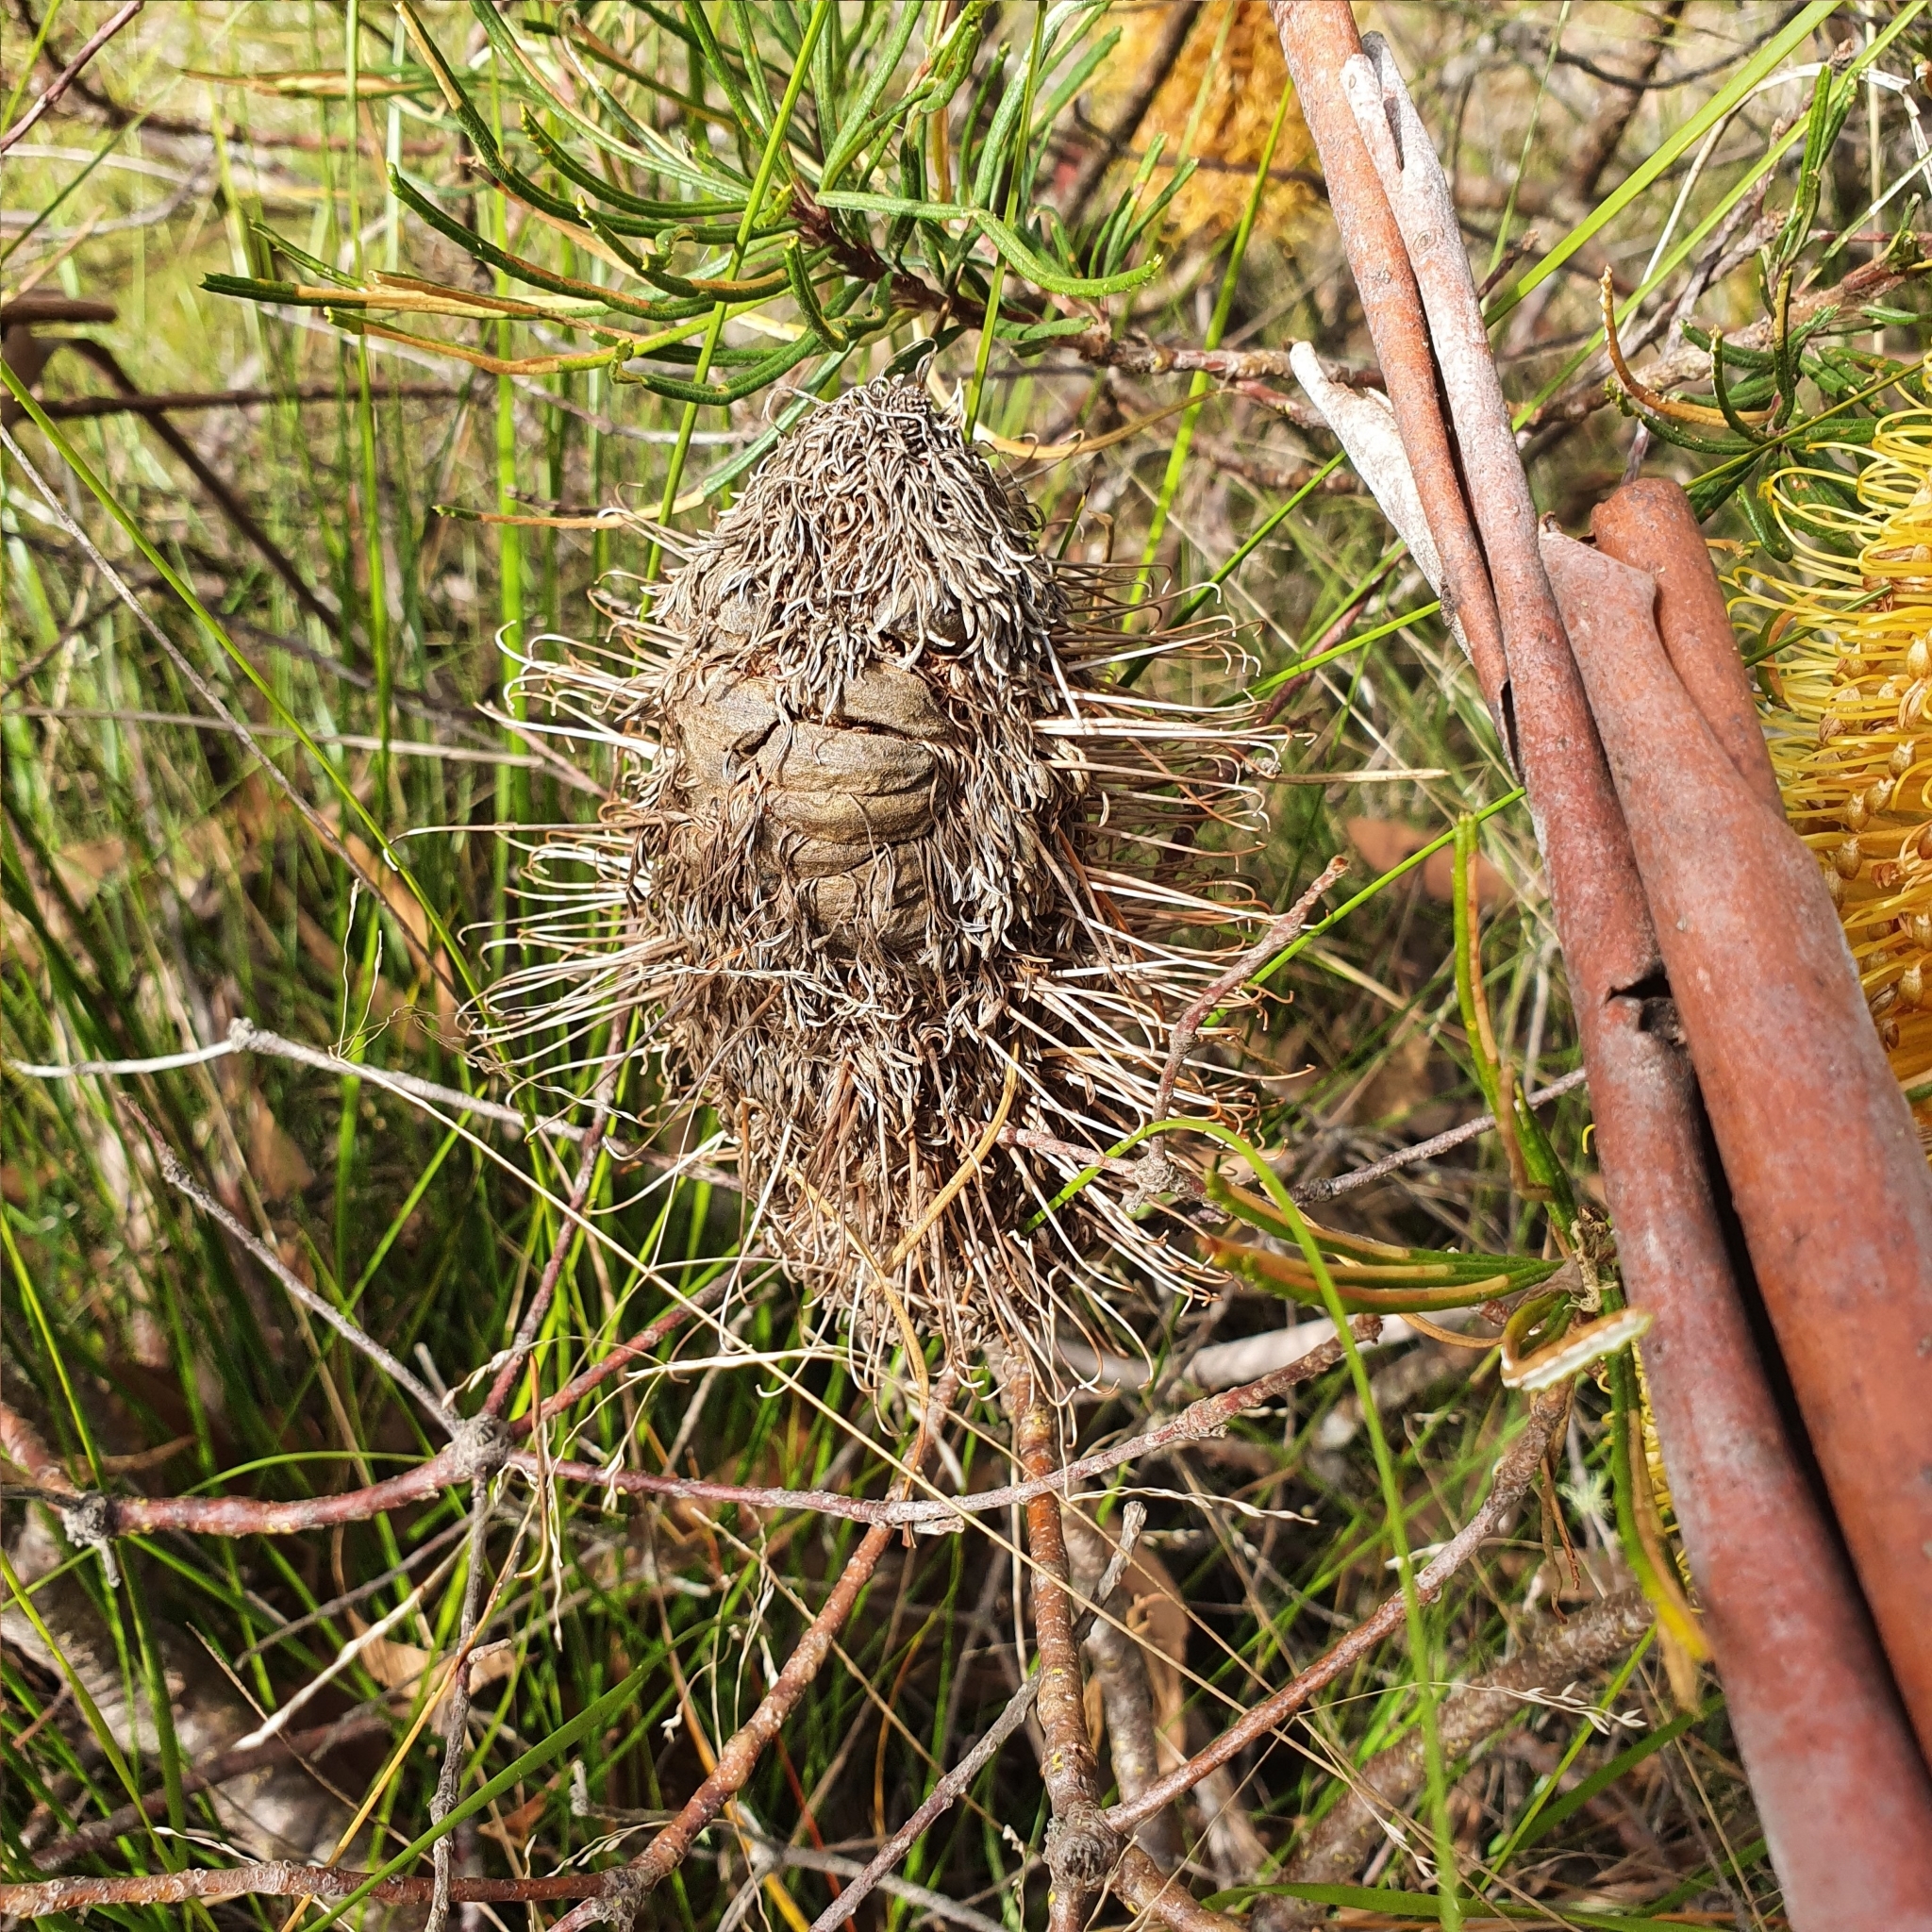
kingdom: Plantae
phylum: Tracheophyta
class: Magnoliopsida
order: Proteales
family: Proteaceae
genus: Banksia
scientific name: Banksia spinulosa
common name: Hairpin banksia
